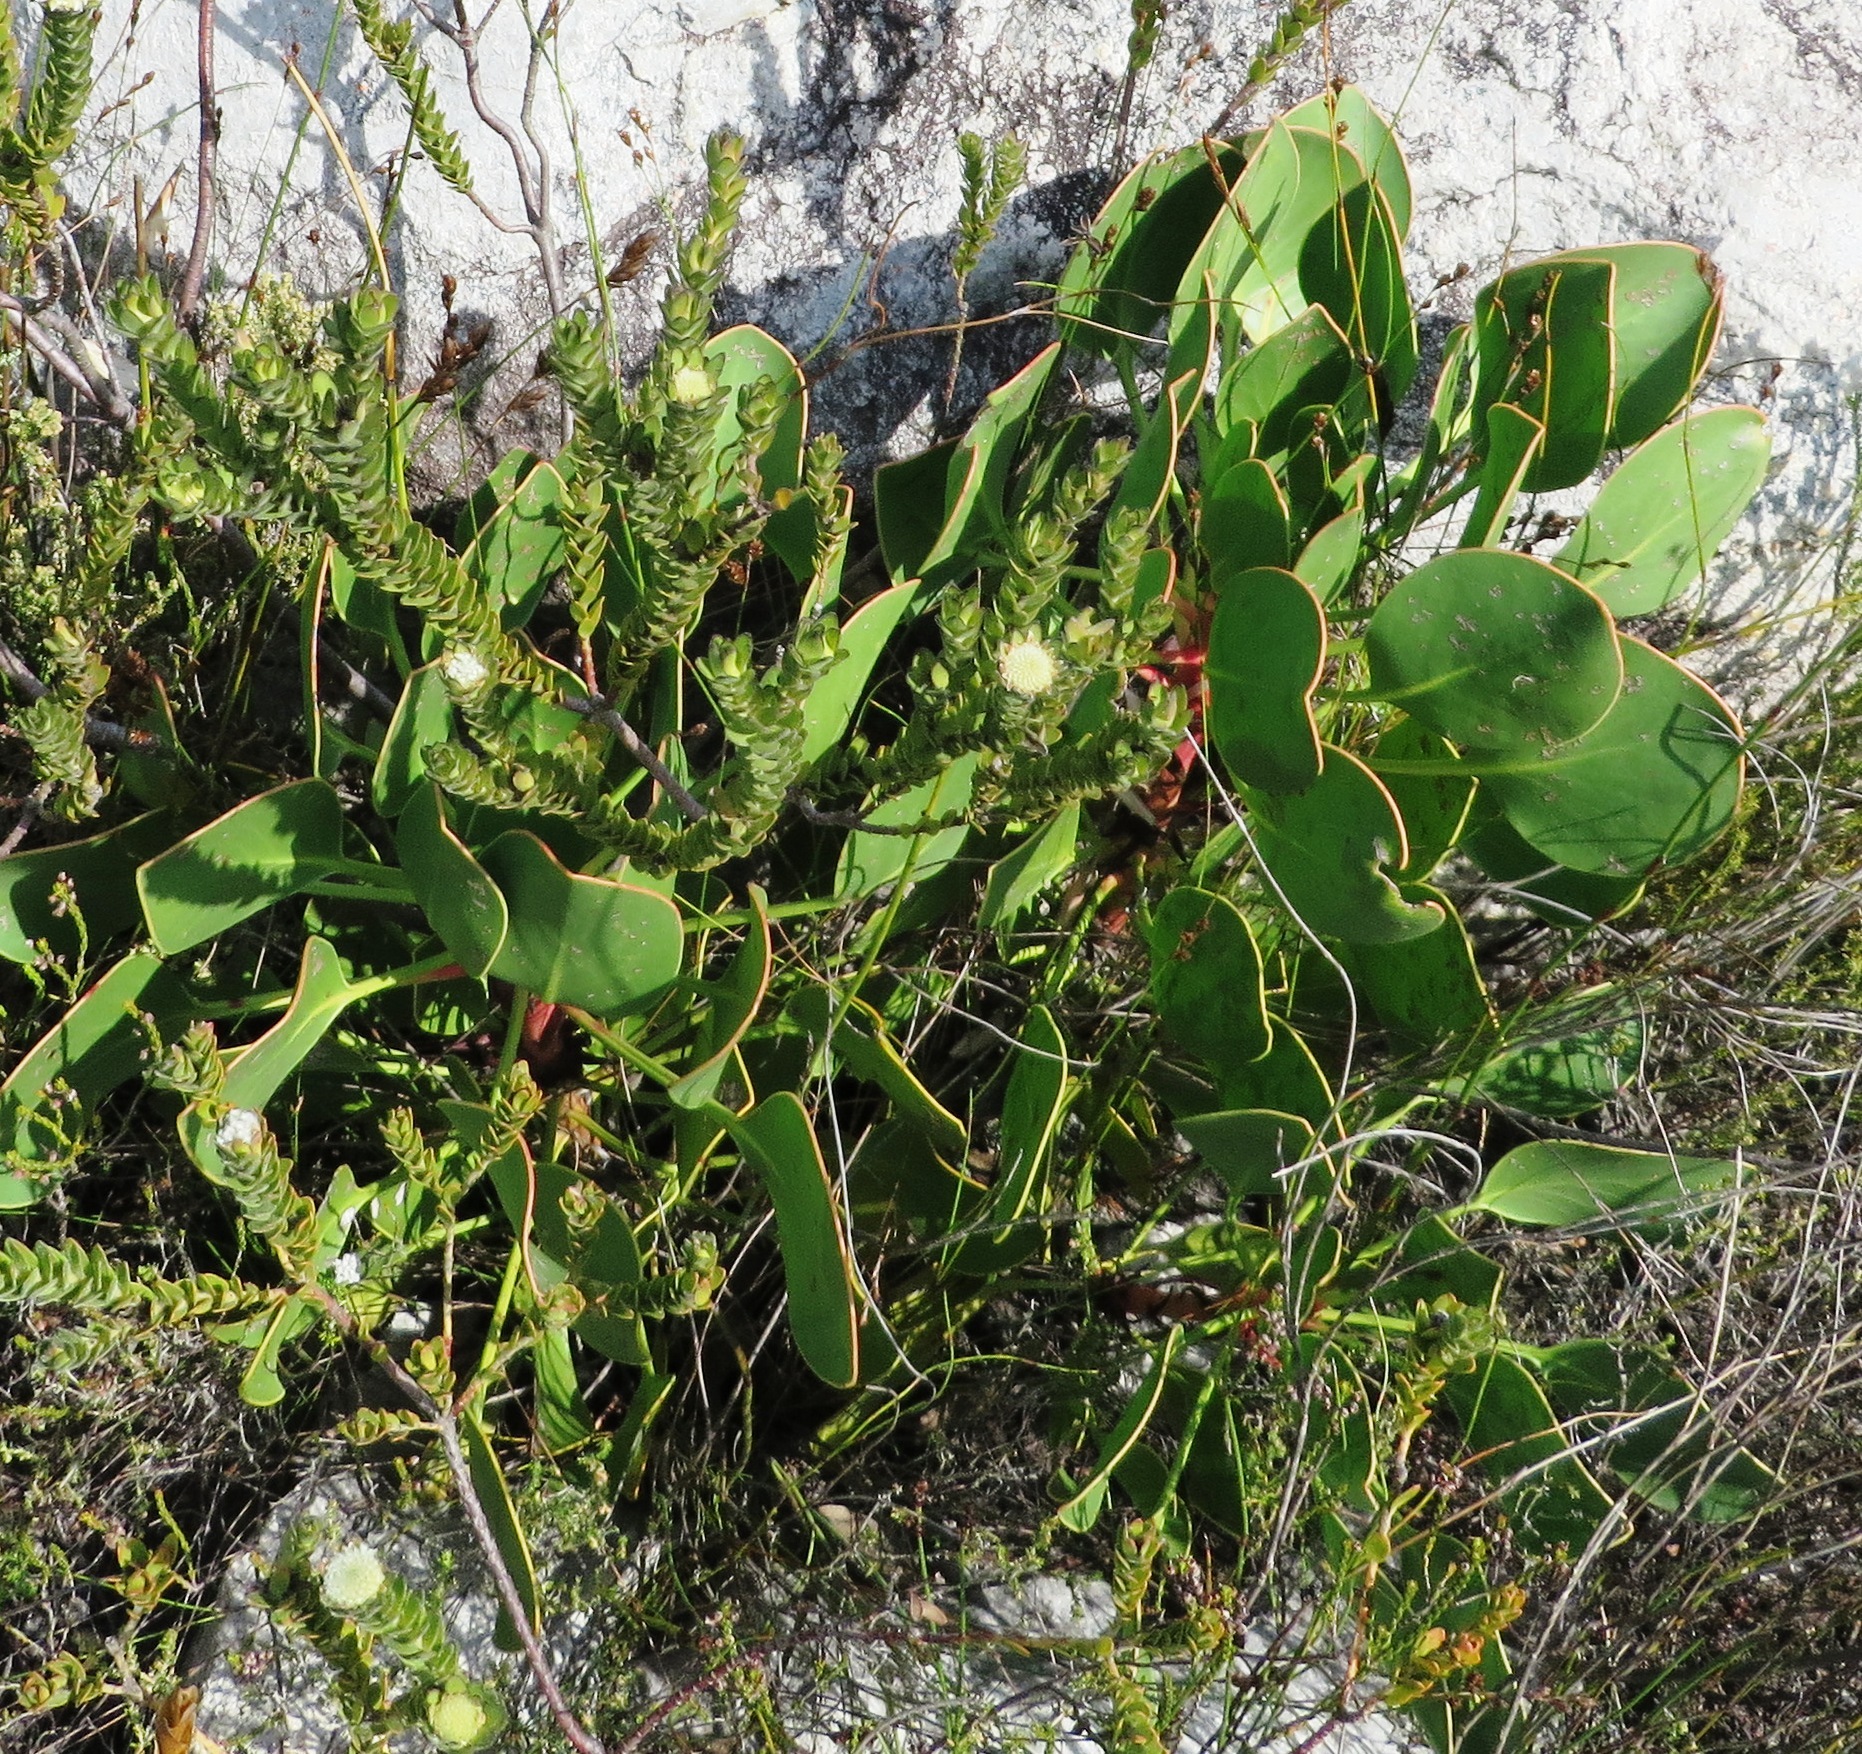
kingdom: Plantae
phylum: Tracheophyta
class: Magnoliopsida
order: Proteales
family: Proteaceae
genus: Protea
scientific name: Protea cynaroides
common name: King protea
